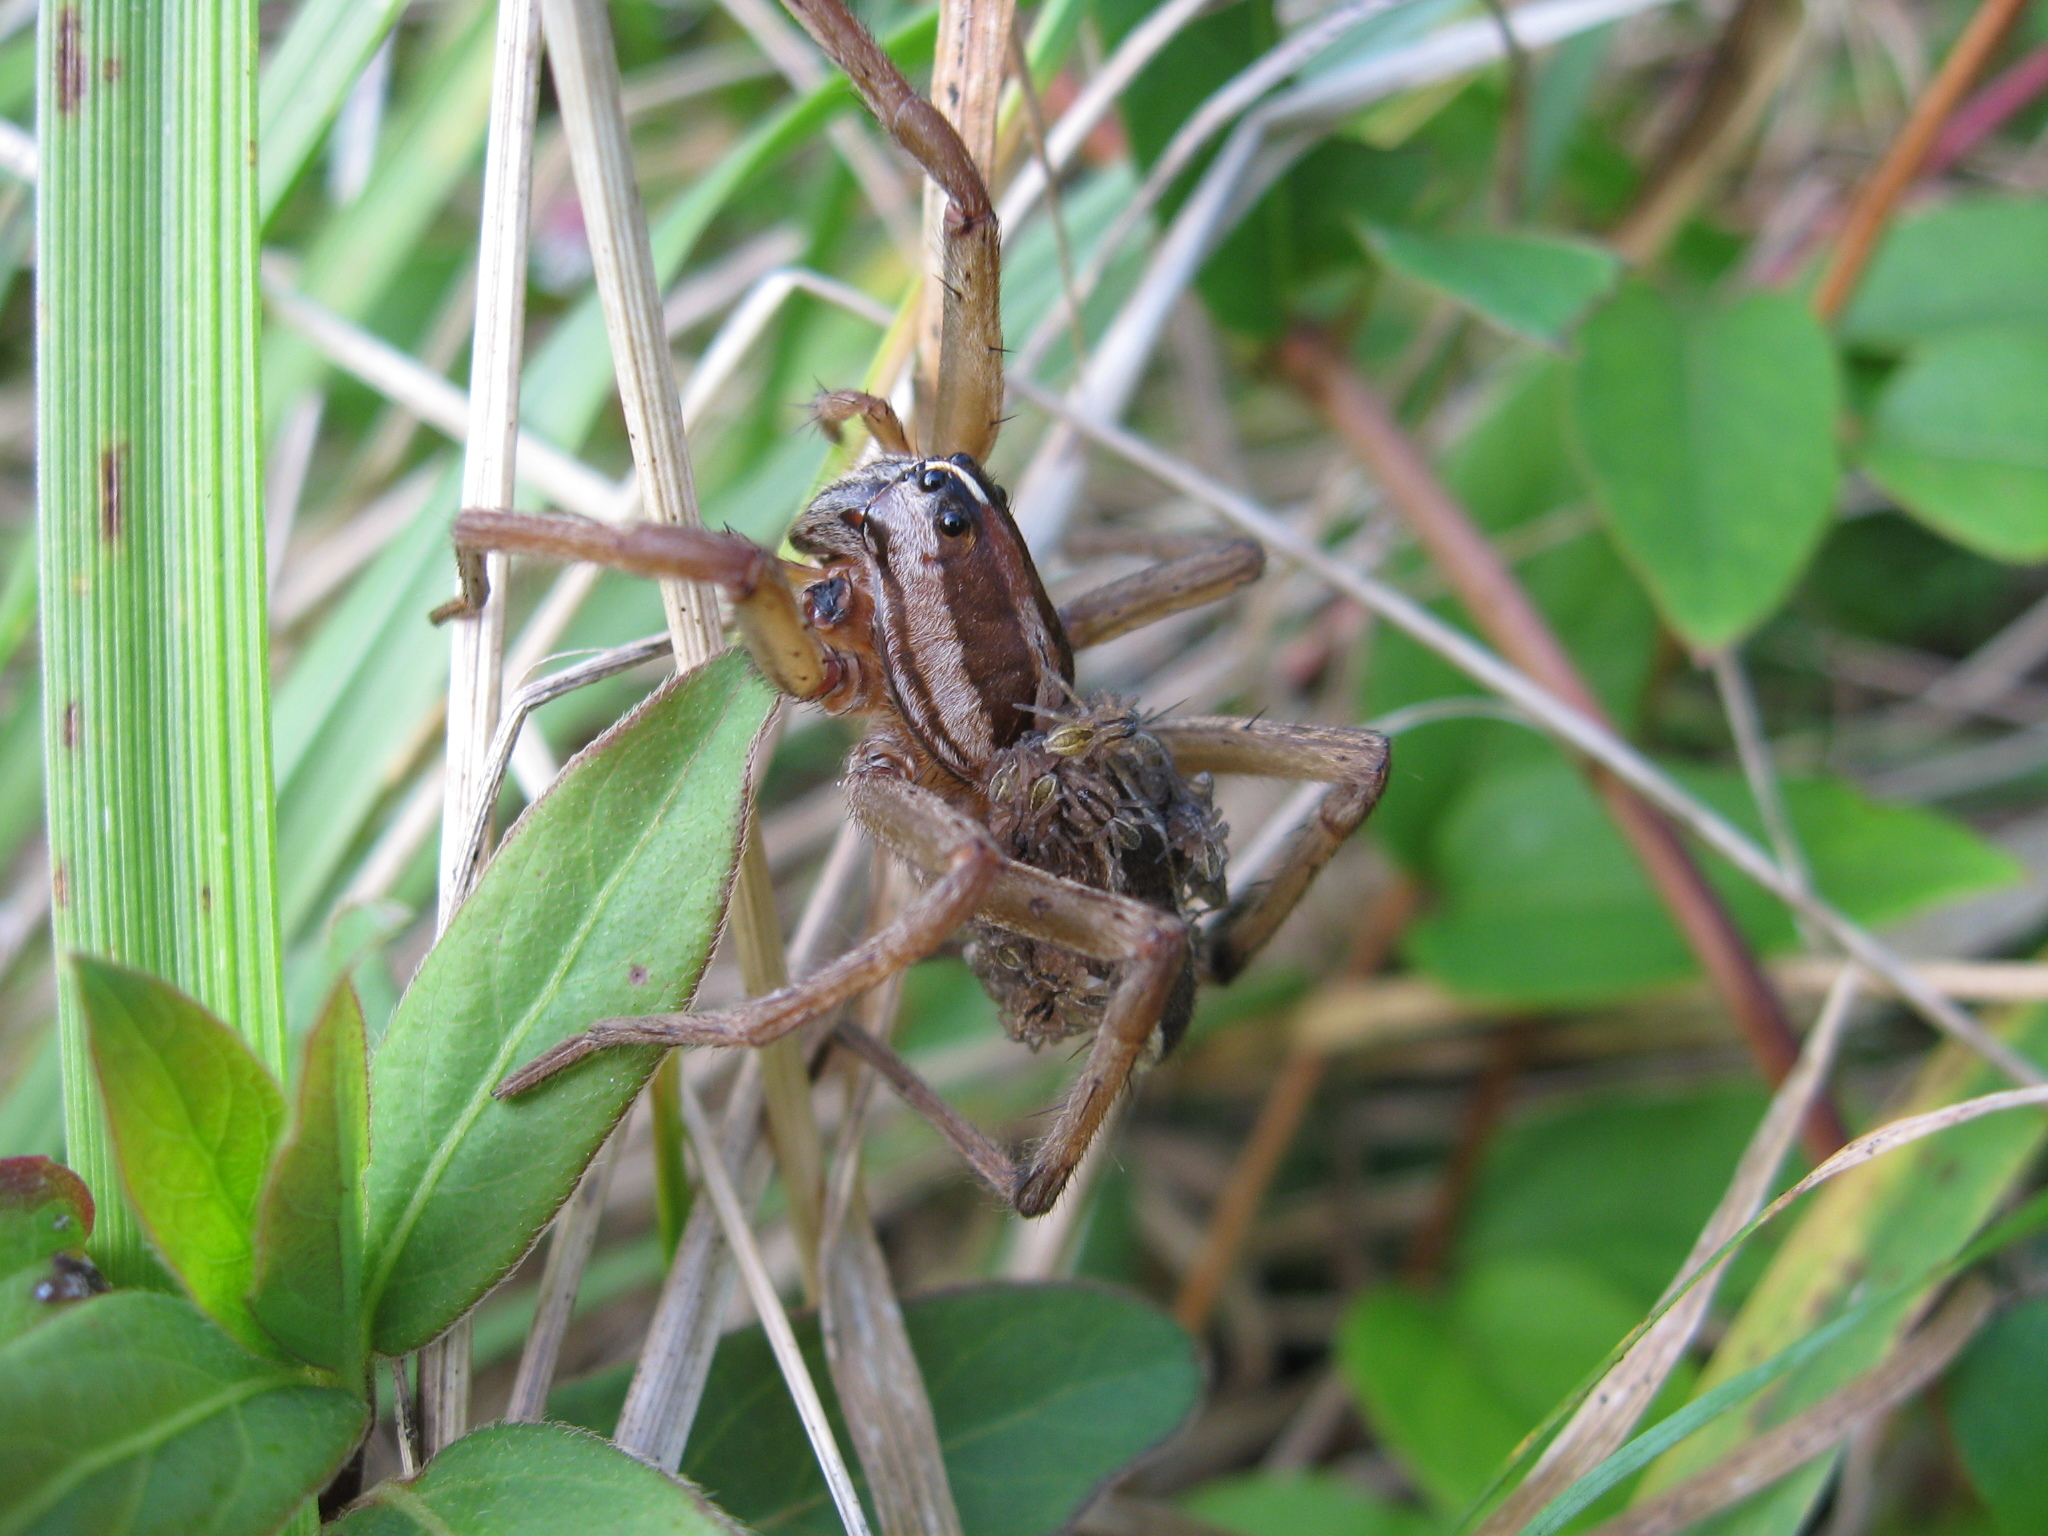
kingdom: Animalia
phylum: Arthropoda
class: Arachnida
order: Araneae
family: Lycosidae
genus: Rabidosa
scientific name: Rabidosa
